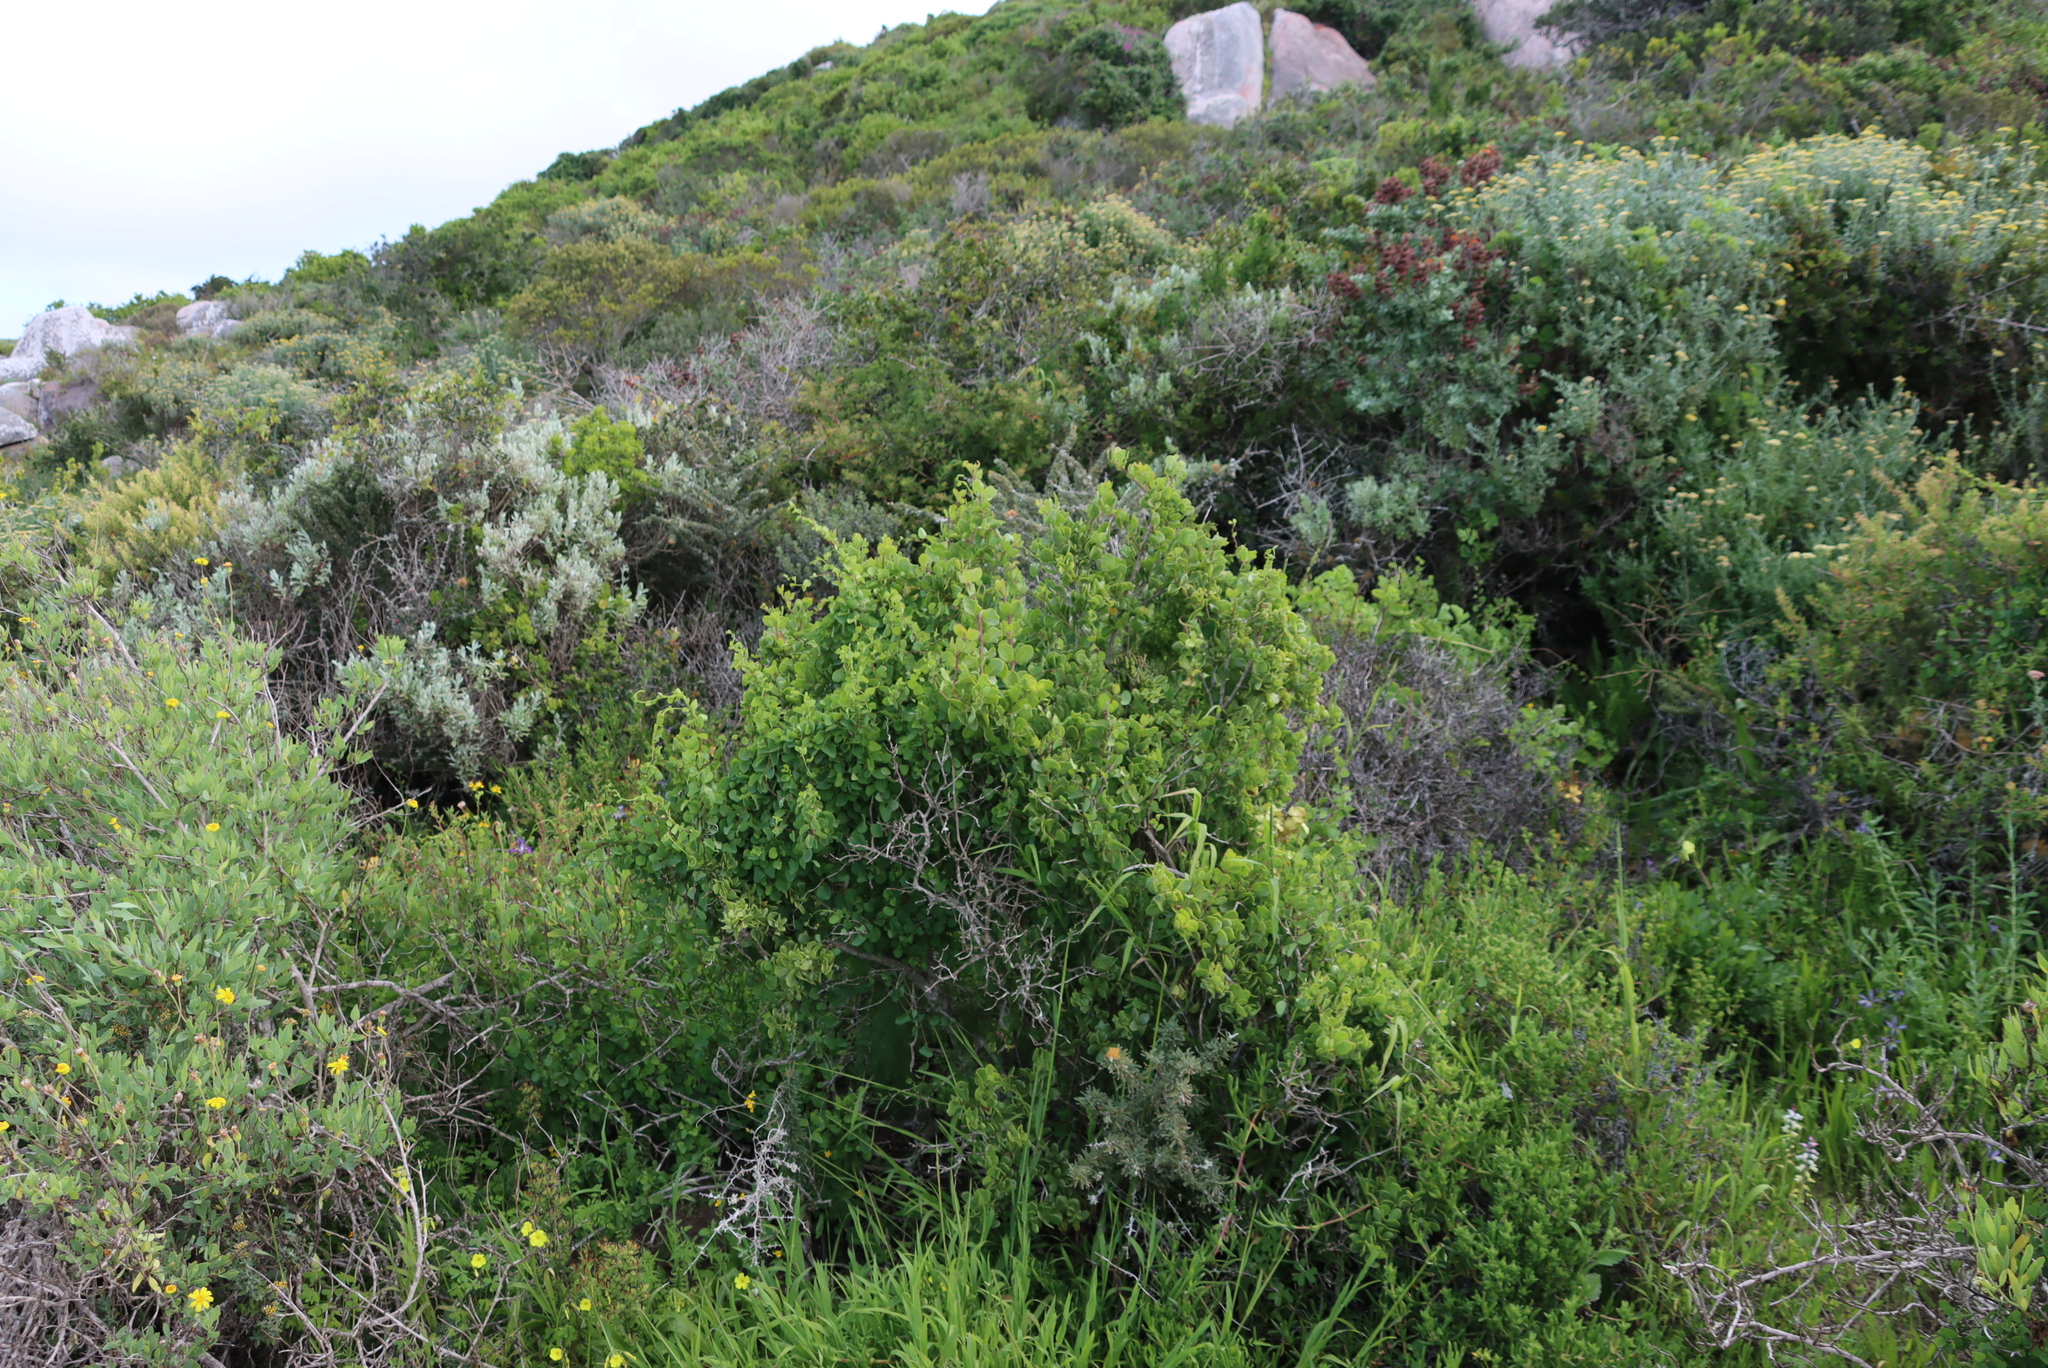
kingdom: Plantae
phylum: Tracheophyta
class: Magnoliopsida
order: Ranunculales
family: Menispermaceae
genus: Cissampelos
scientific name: Cissampelos capensis
